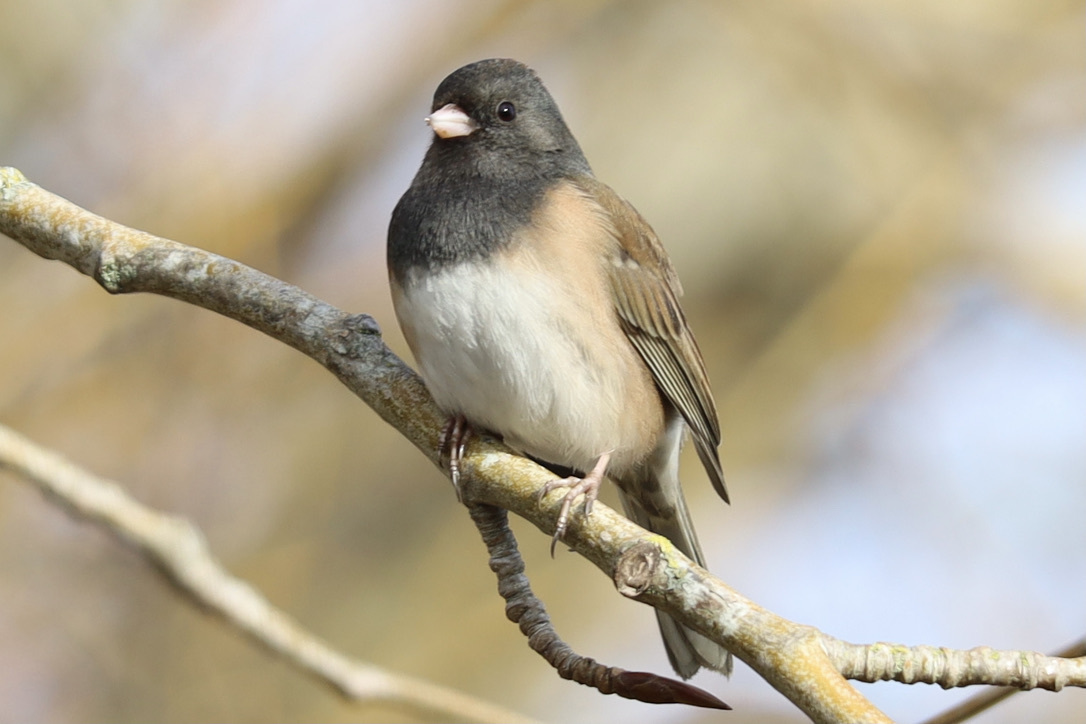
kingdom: Animalia
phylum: Chordata
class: Aves
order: Passeriformes
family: Passerellidae
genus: Junco
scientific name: Junco hyemalis
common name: Dark-eyed junco
